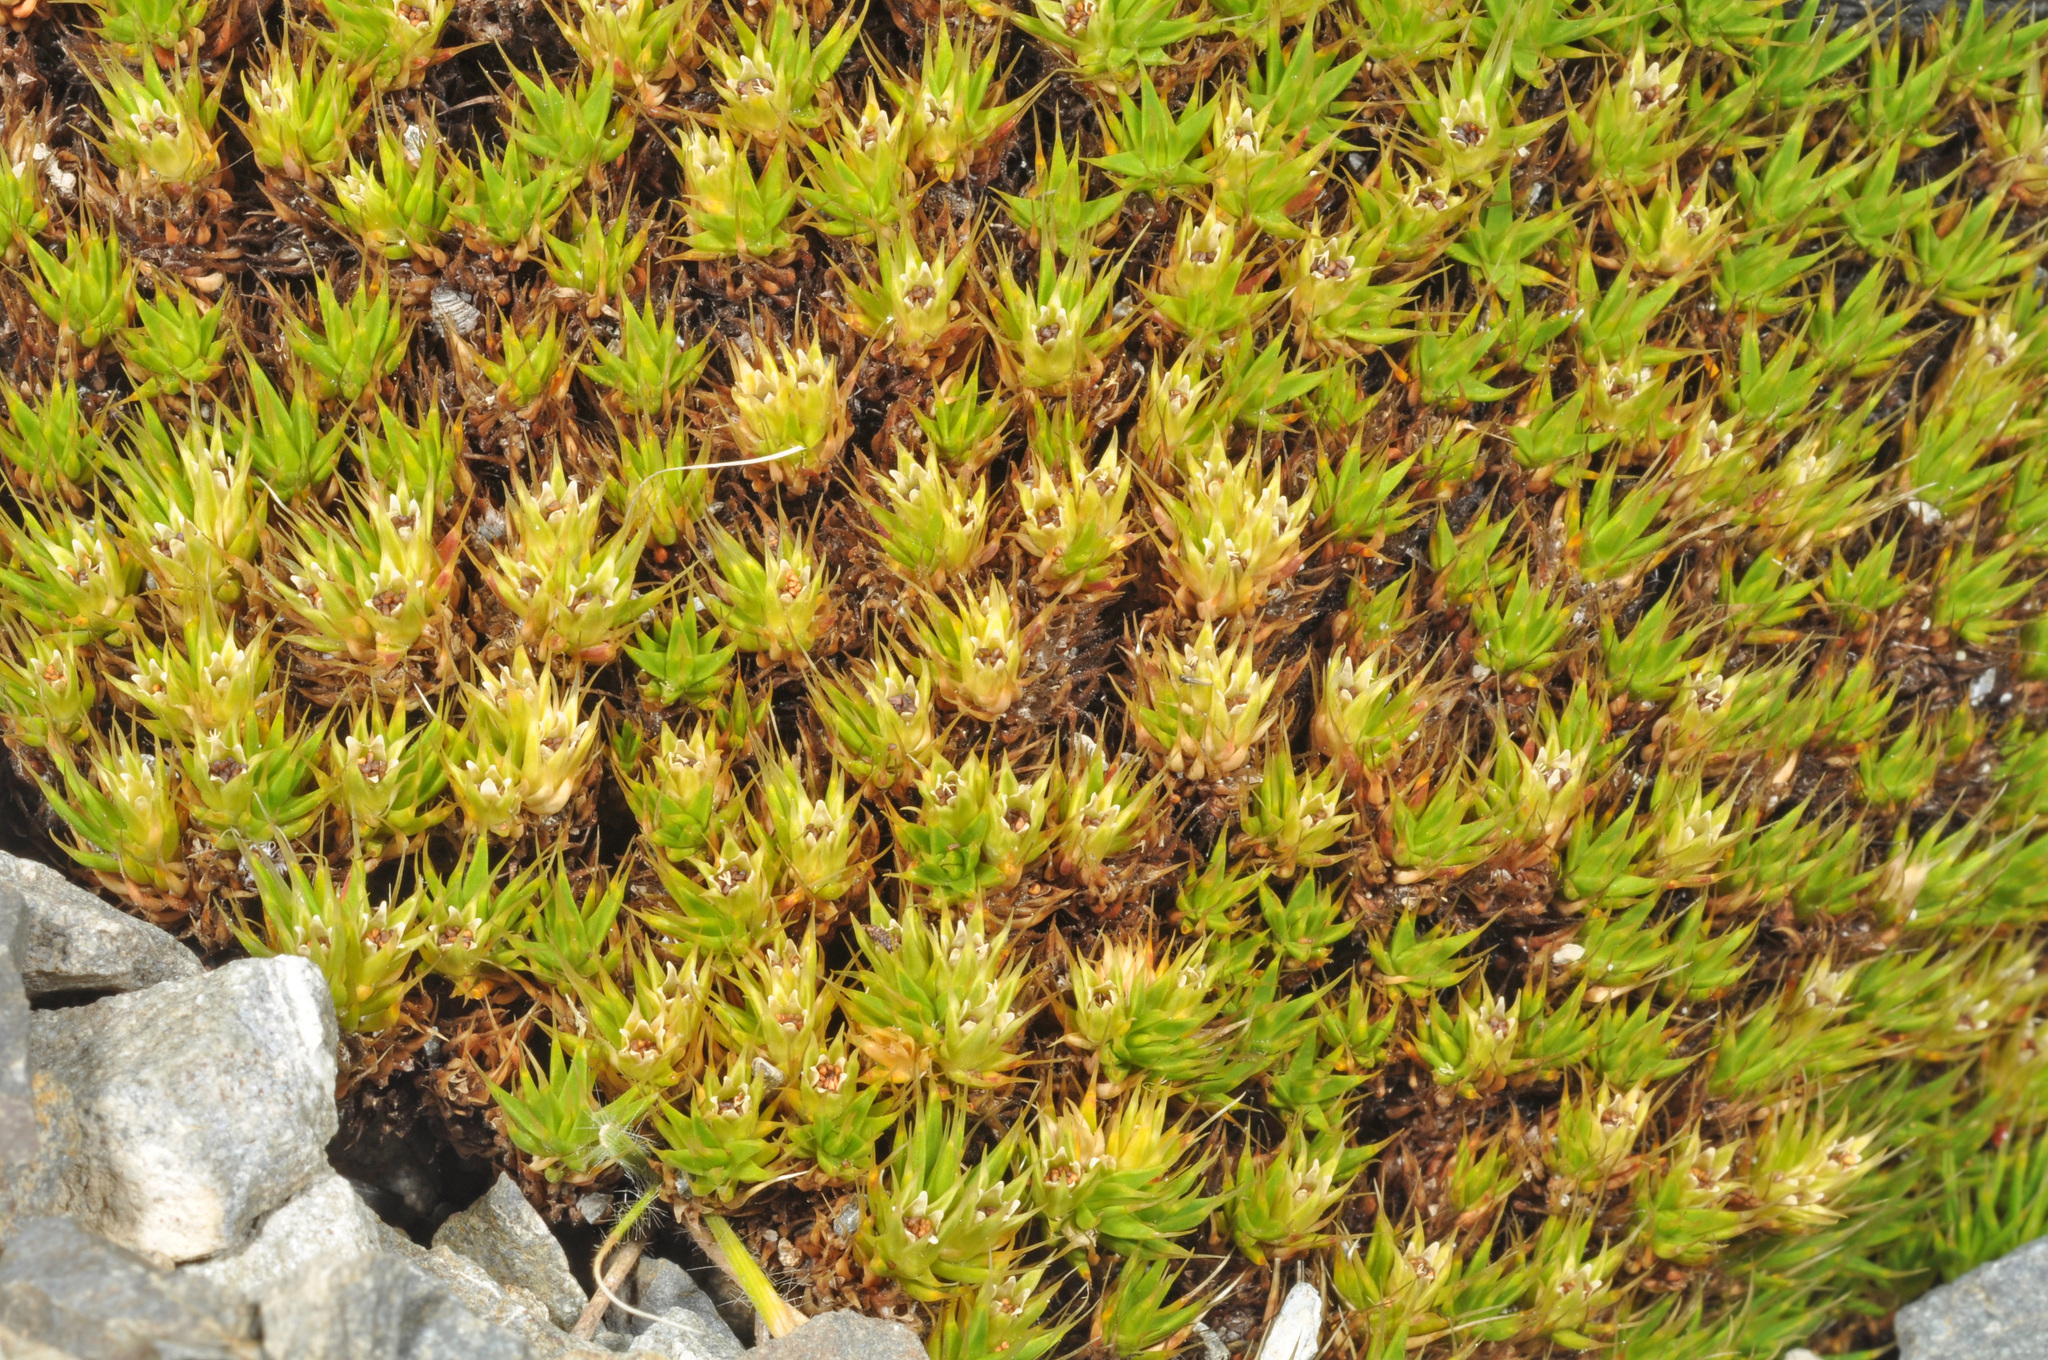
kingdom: Plantae
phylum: Tracheophyta
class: Magnoliopsida
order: Caryophyllales
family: Caryophyllaceae
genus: Colobanthus
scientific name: Colobanthus acicularis
